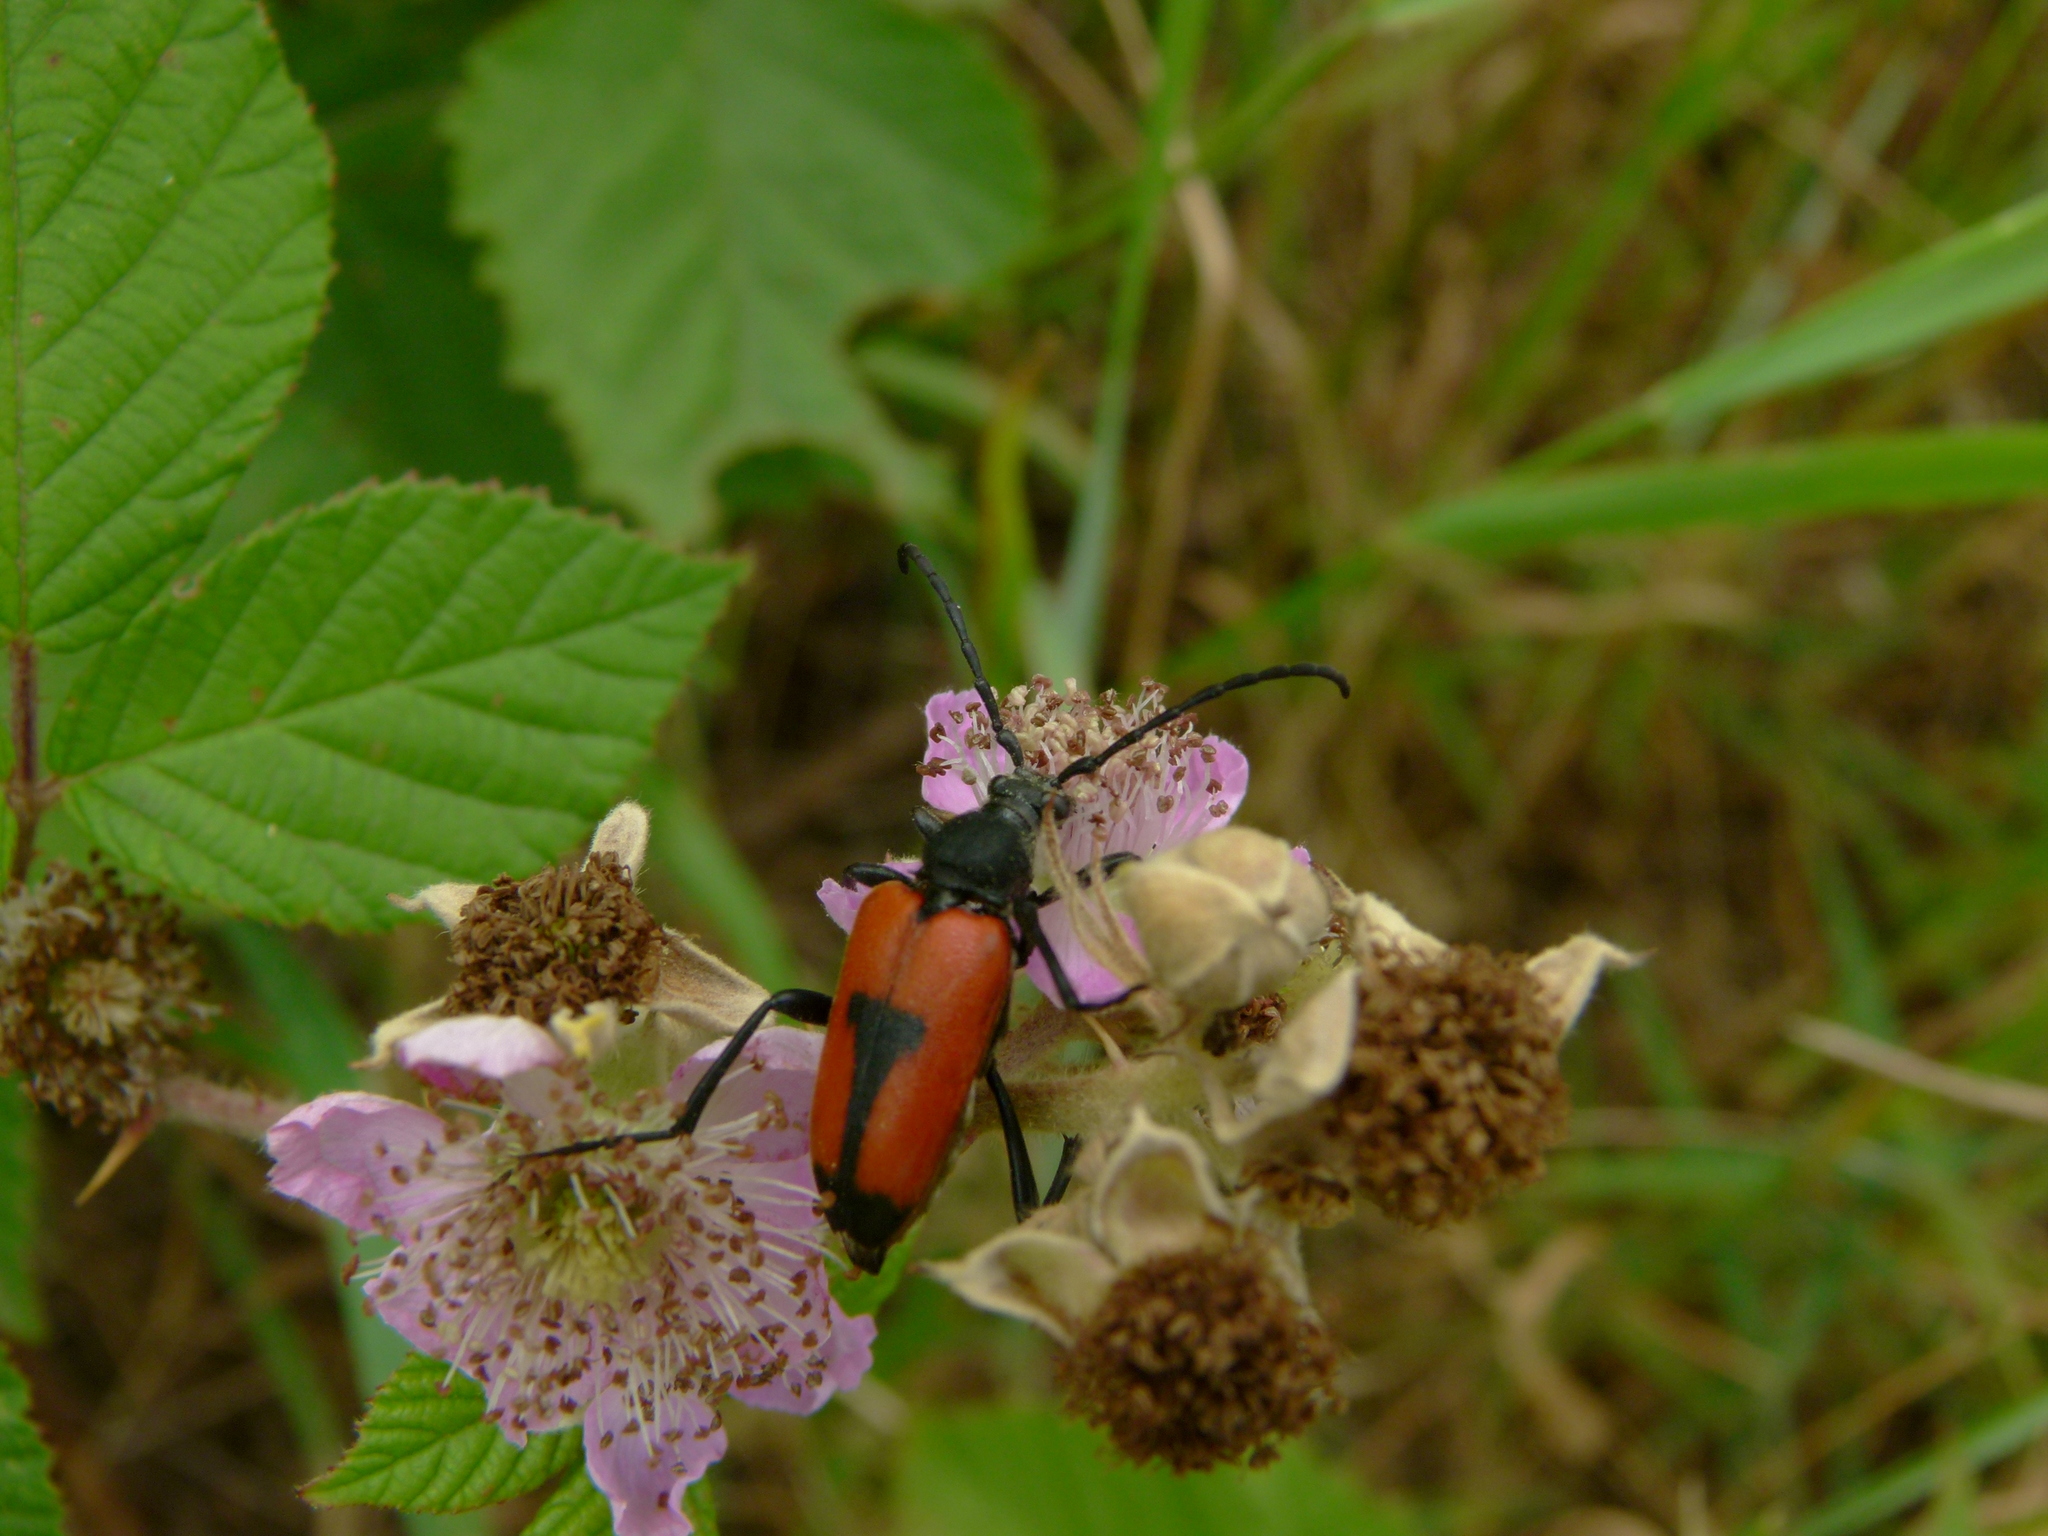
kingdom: Animalia
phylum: Arthropoda
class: Insecta
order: Coleoptera
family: Cerambycidae
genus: Stictoleptura
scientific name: Stictoleptura cordigera
